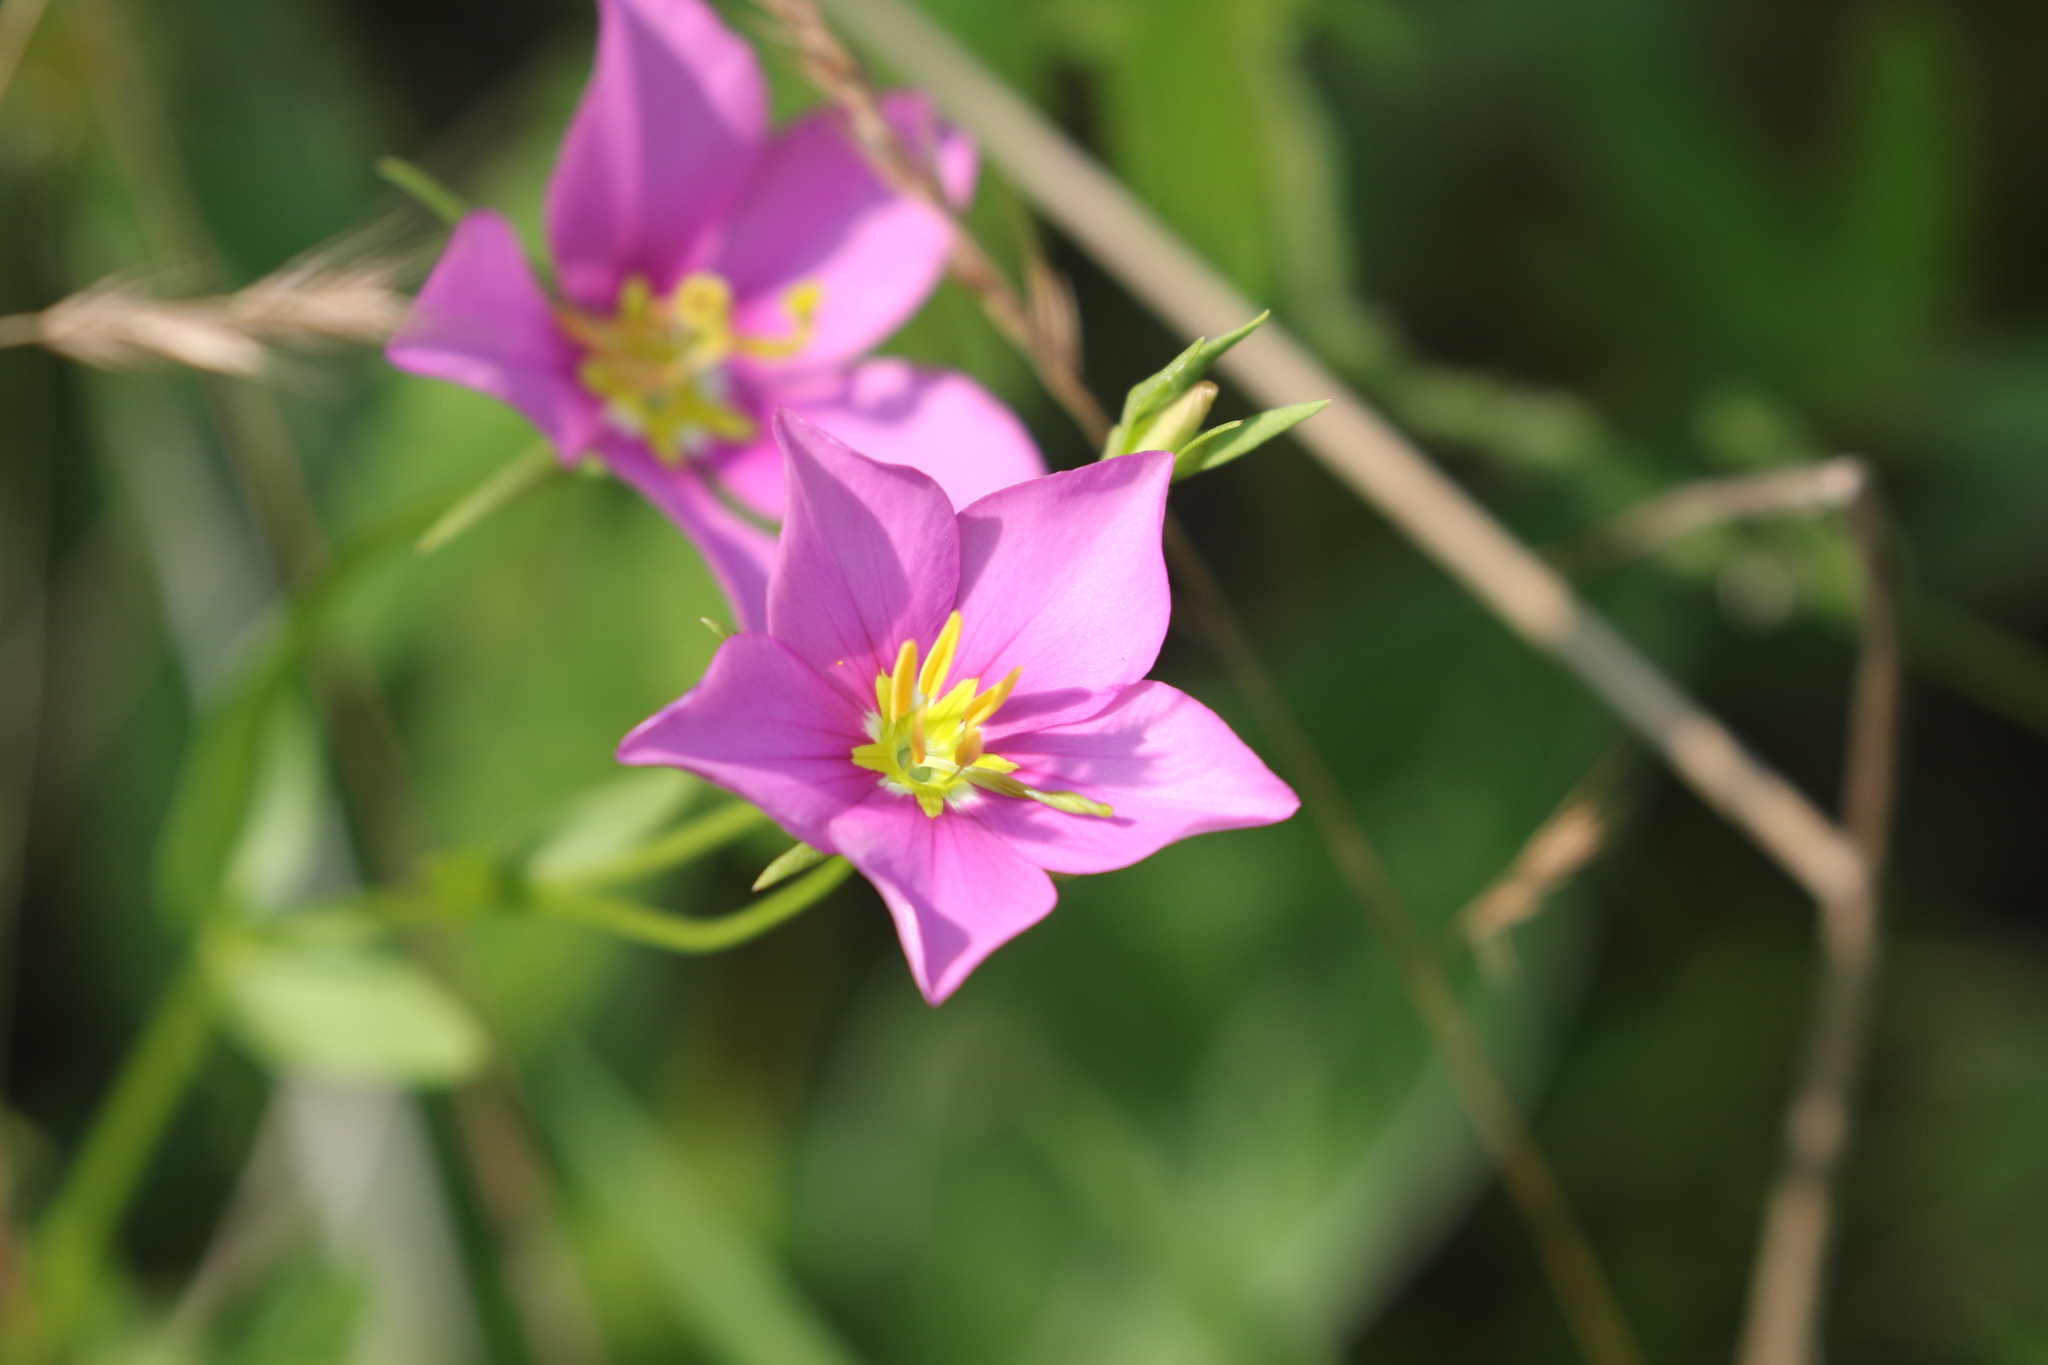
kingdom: Plantae
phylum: Tracheophyta
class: Magnoliopsida
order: Gentianales
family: Gentianaceae
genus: Sabatia
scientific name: Sabatia campestris
